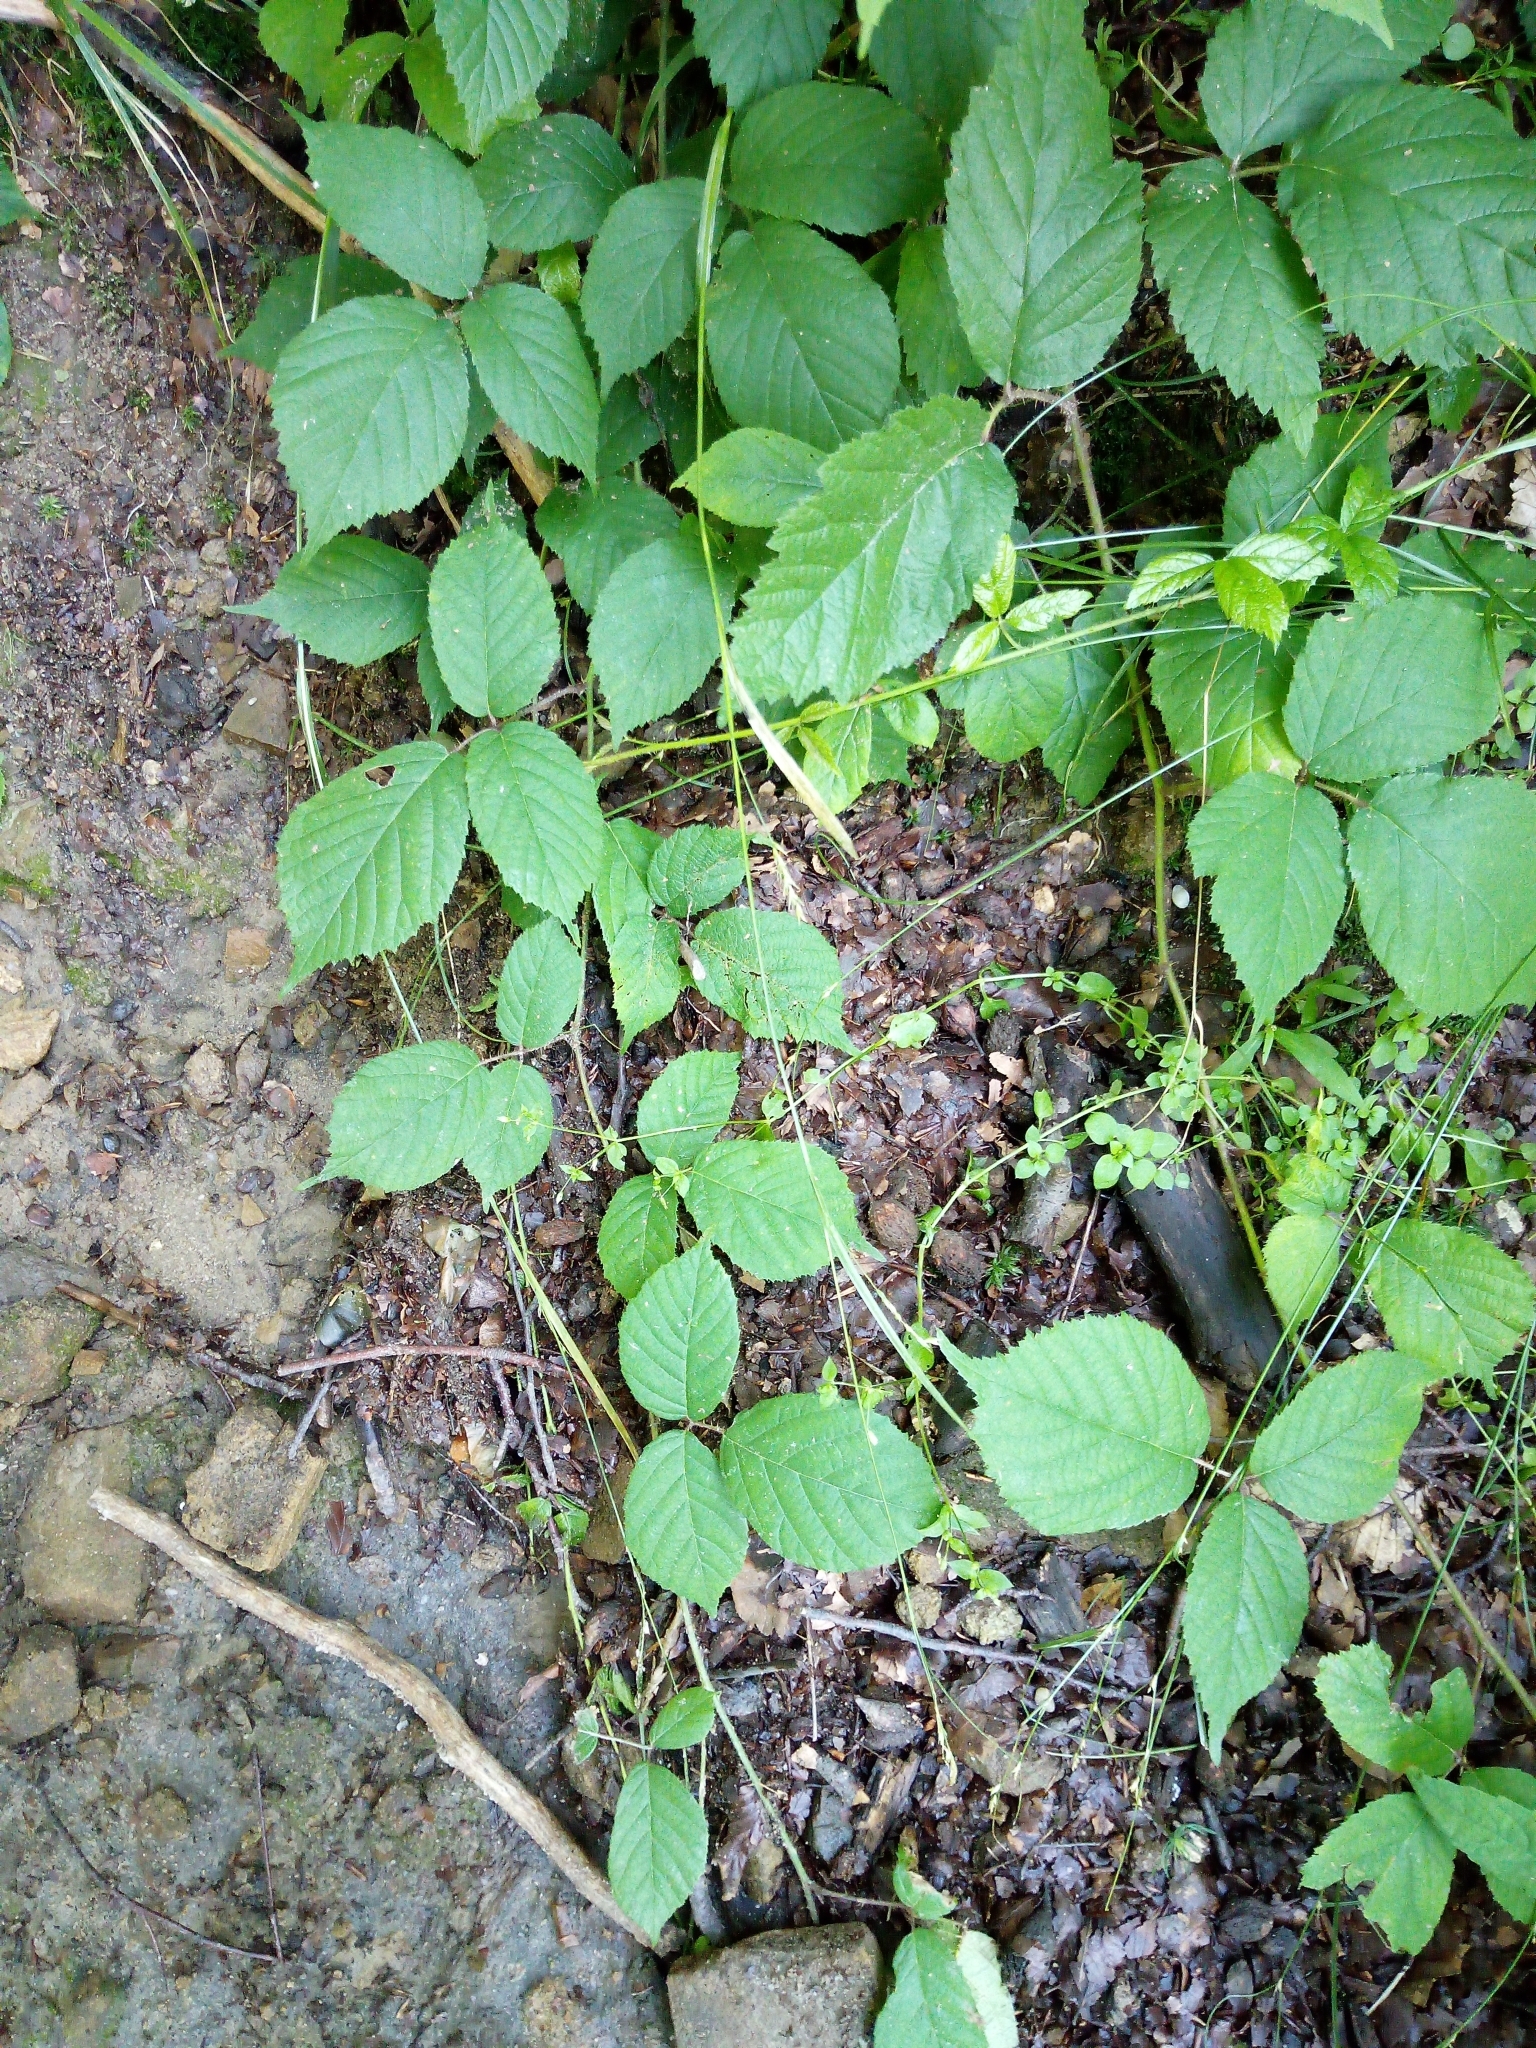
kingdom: Plantae
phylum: Tracheophyta
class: Liliopsida
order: Poales
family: Cyperaceae
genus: Carex
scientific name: Carex sylvatica
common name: Wood-sedge
